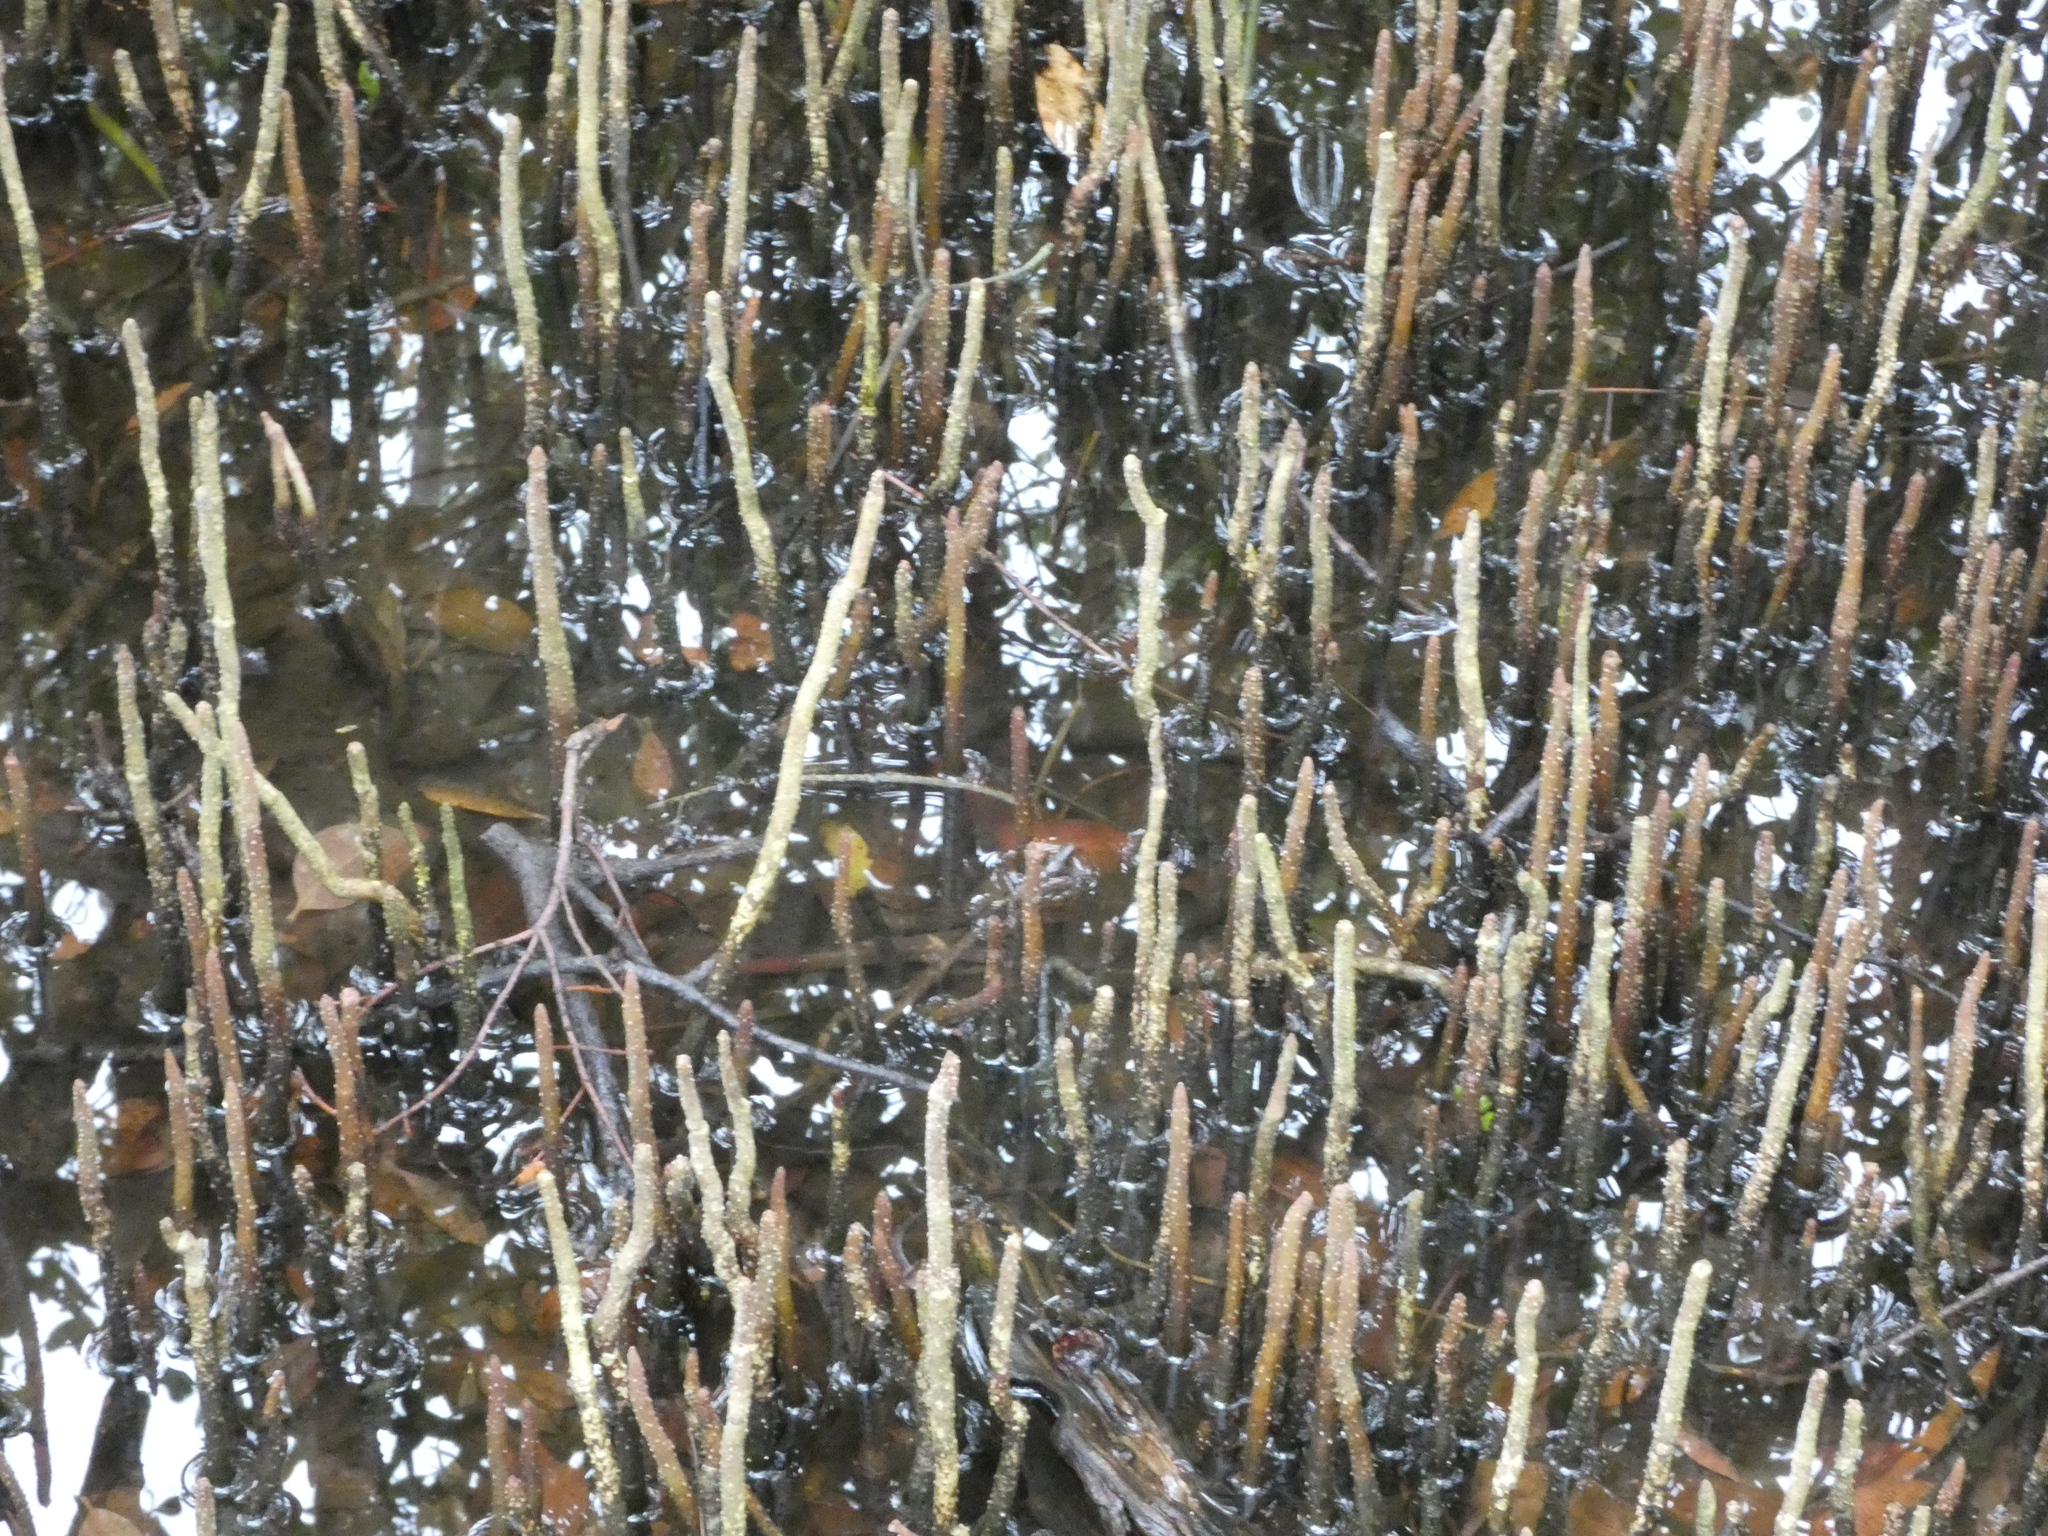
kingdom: Plantae
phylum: Tracheophyta
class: Magnoliopsida
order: Lamiales
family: Acanthaceae
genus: Avicennia
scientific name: Avicennia germinans
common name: Black mangrove
